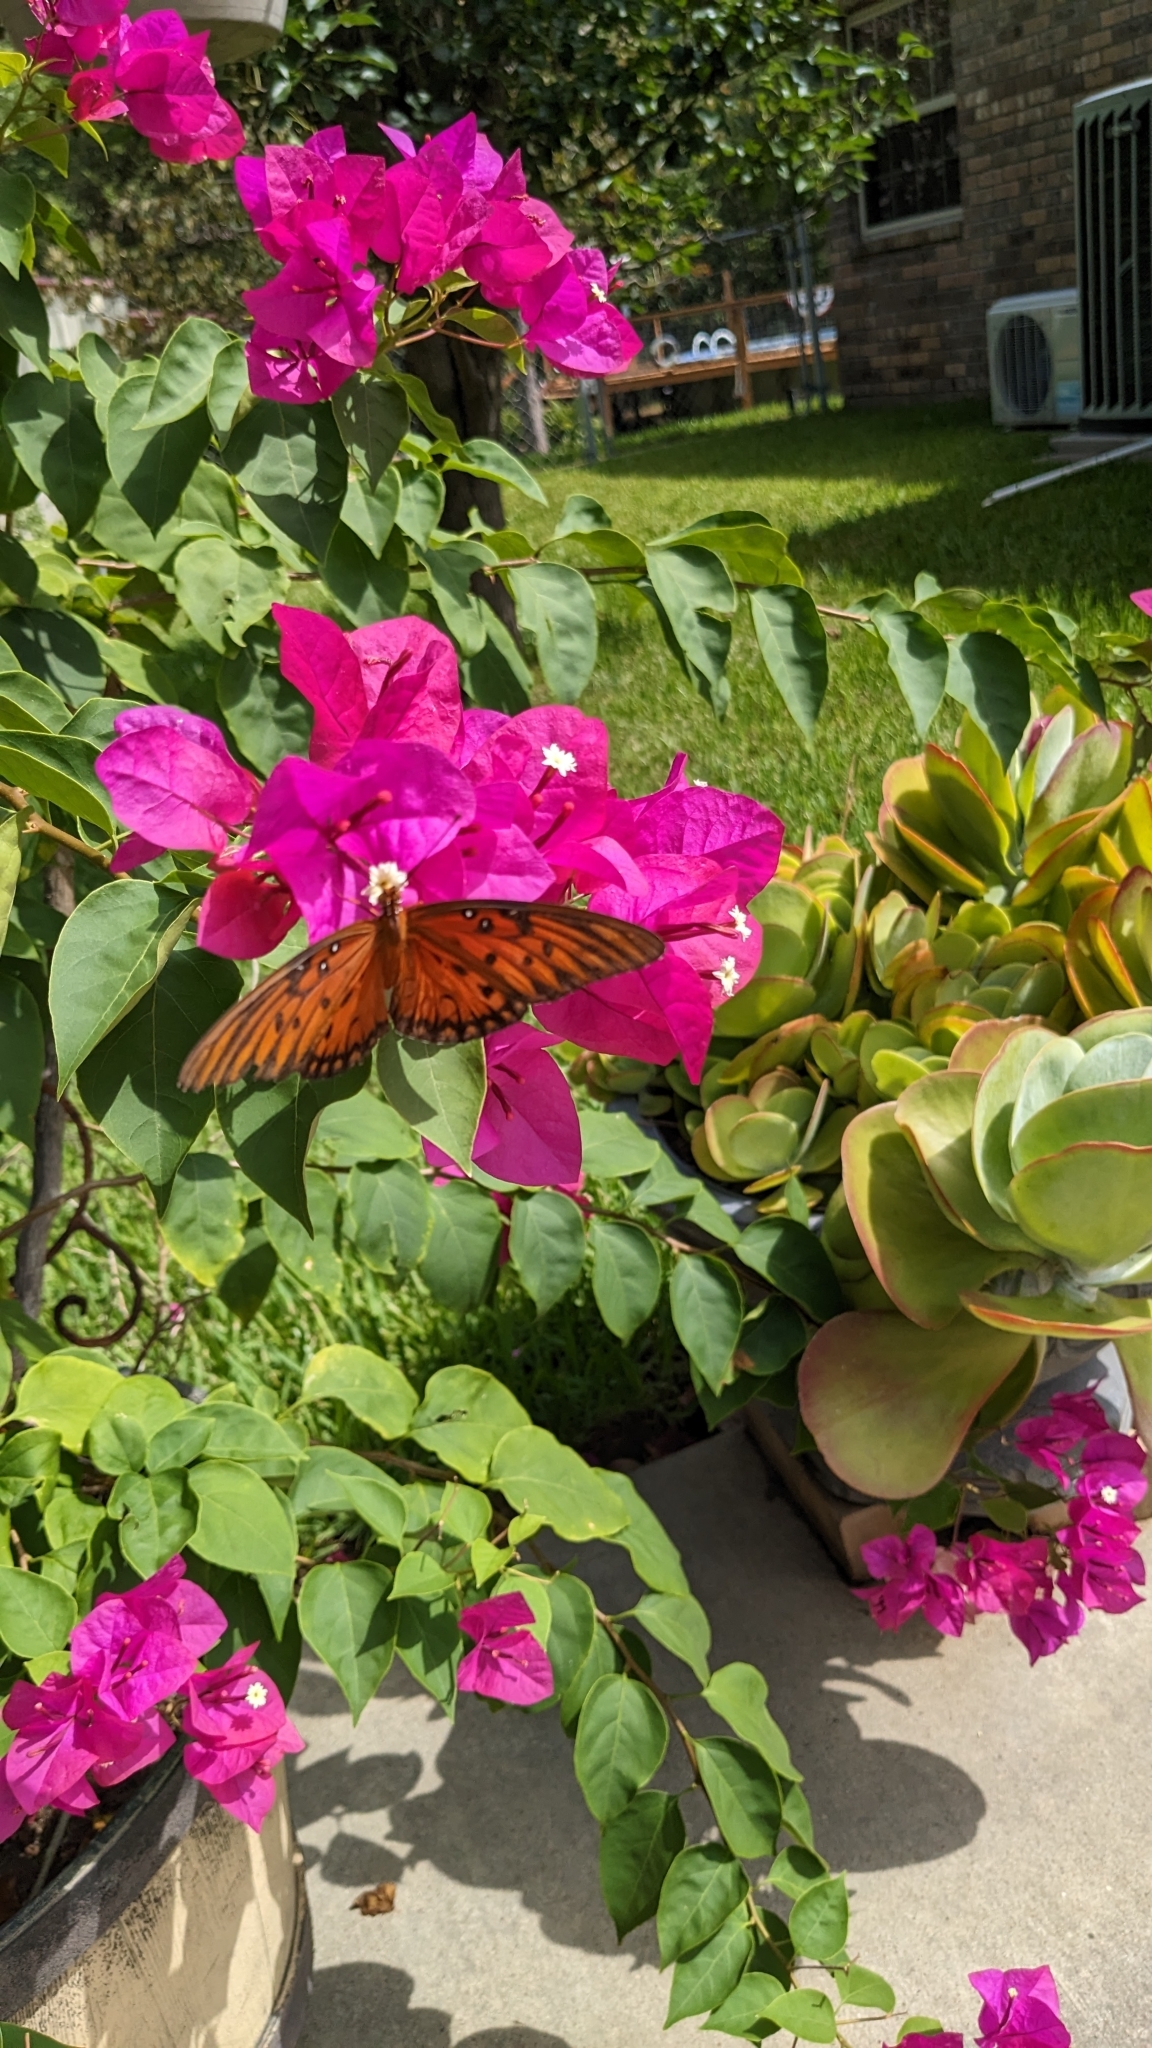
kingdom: Animalia
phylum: Arthropoda
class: Insecta
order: Lepidoptera
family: Nymphalidae
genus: Dione
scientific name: Dione vanillae
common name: Gulf fritillary
